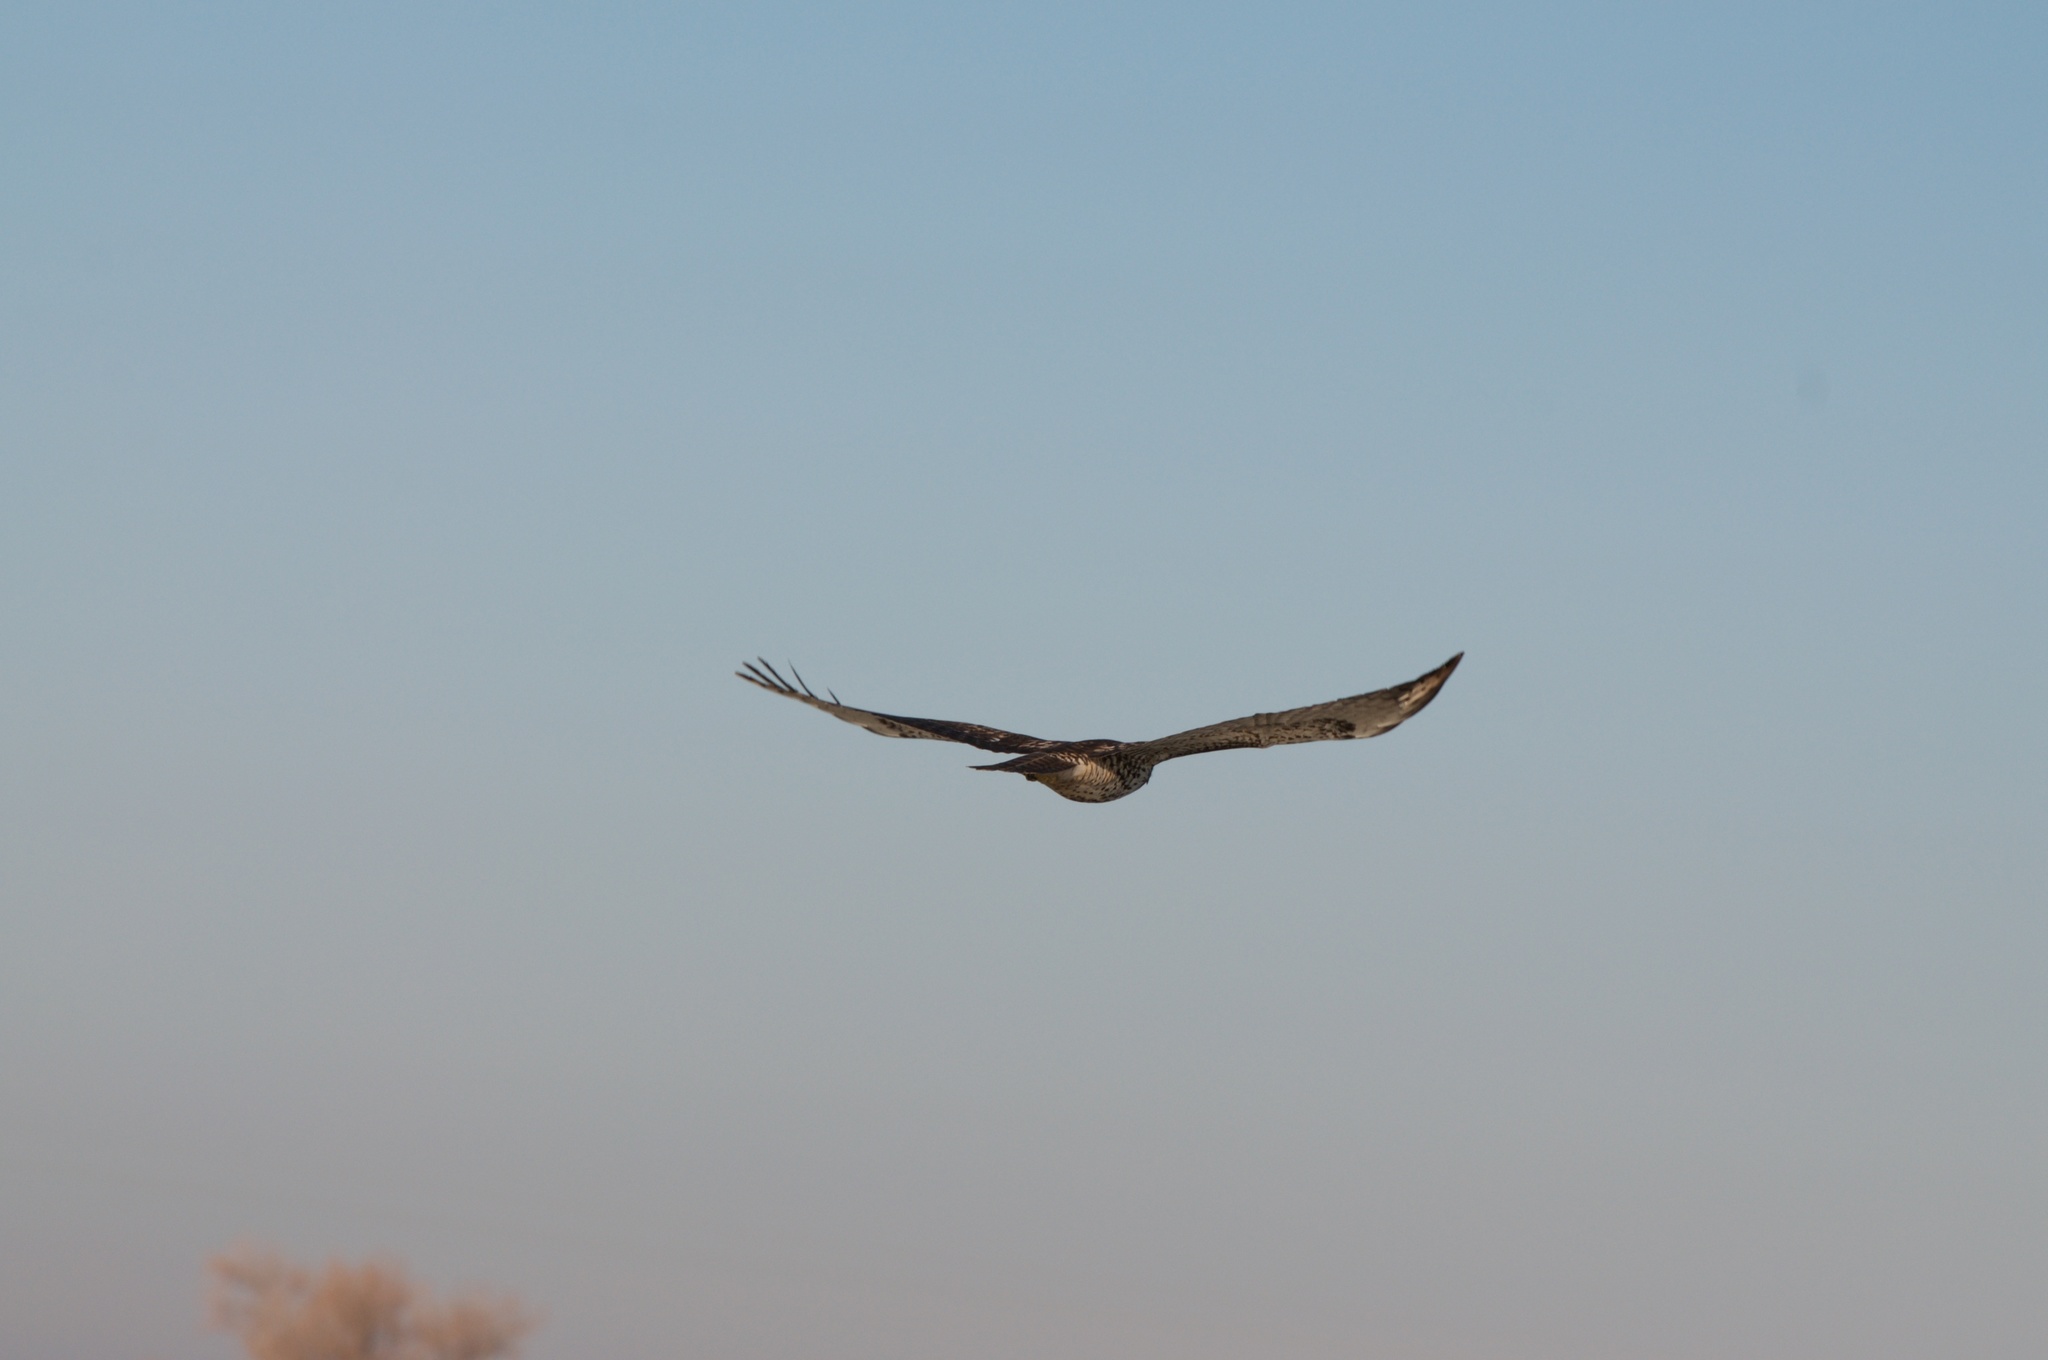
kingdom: Animalia
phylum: Chordata
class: Aves
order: Accipitriformes
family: Accipitridae
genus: Buteo
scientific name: Buteo jamaicensis
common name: Red-tailed hawk
